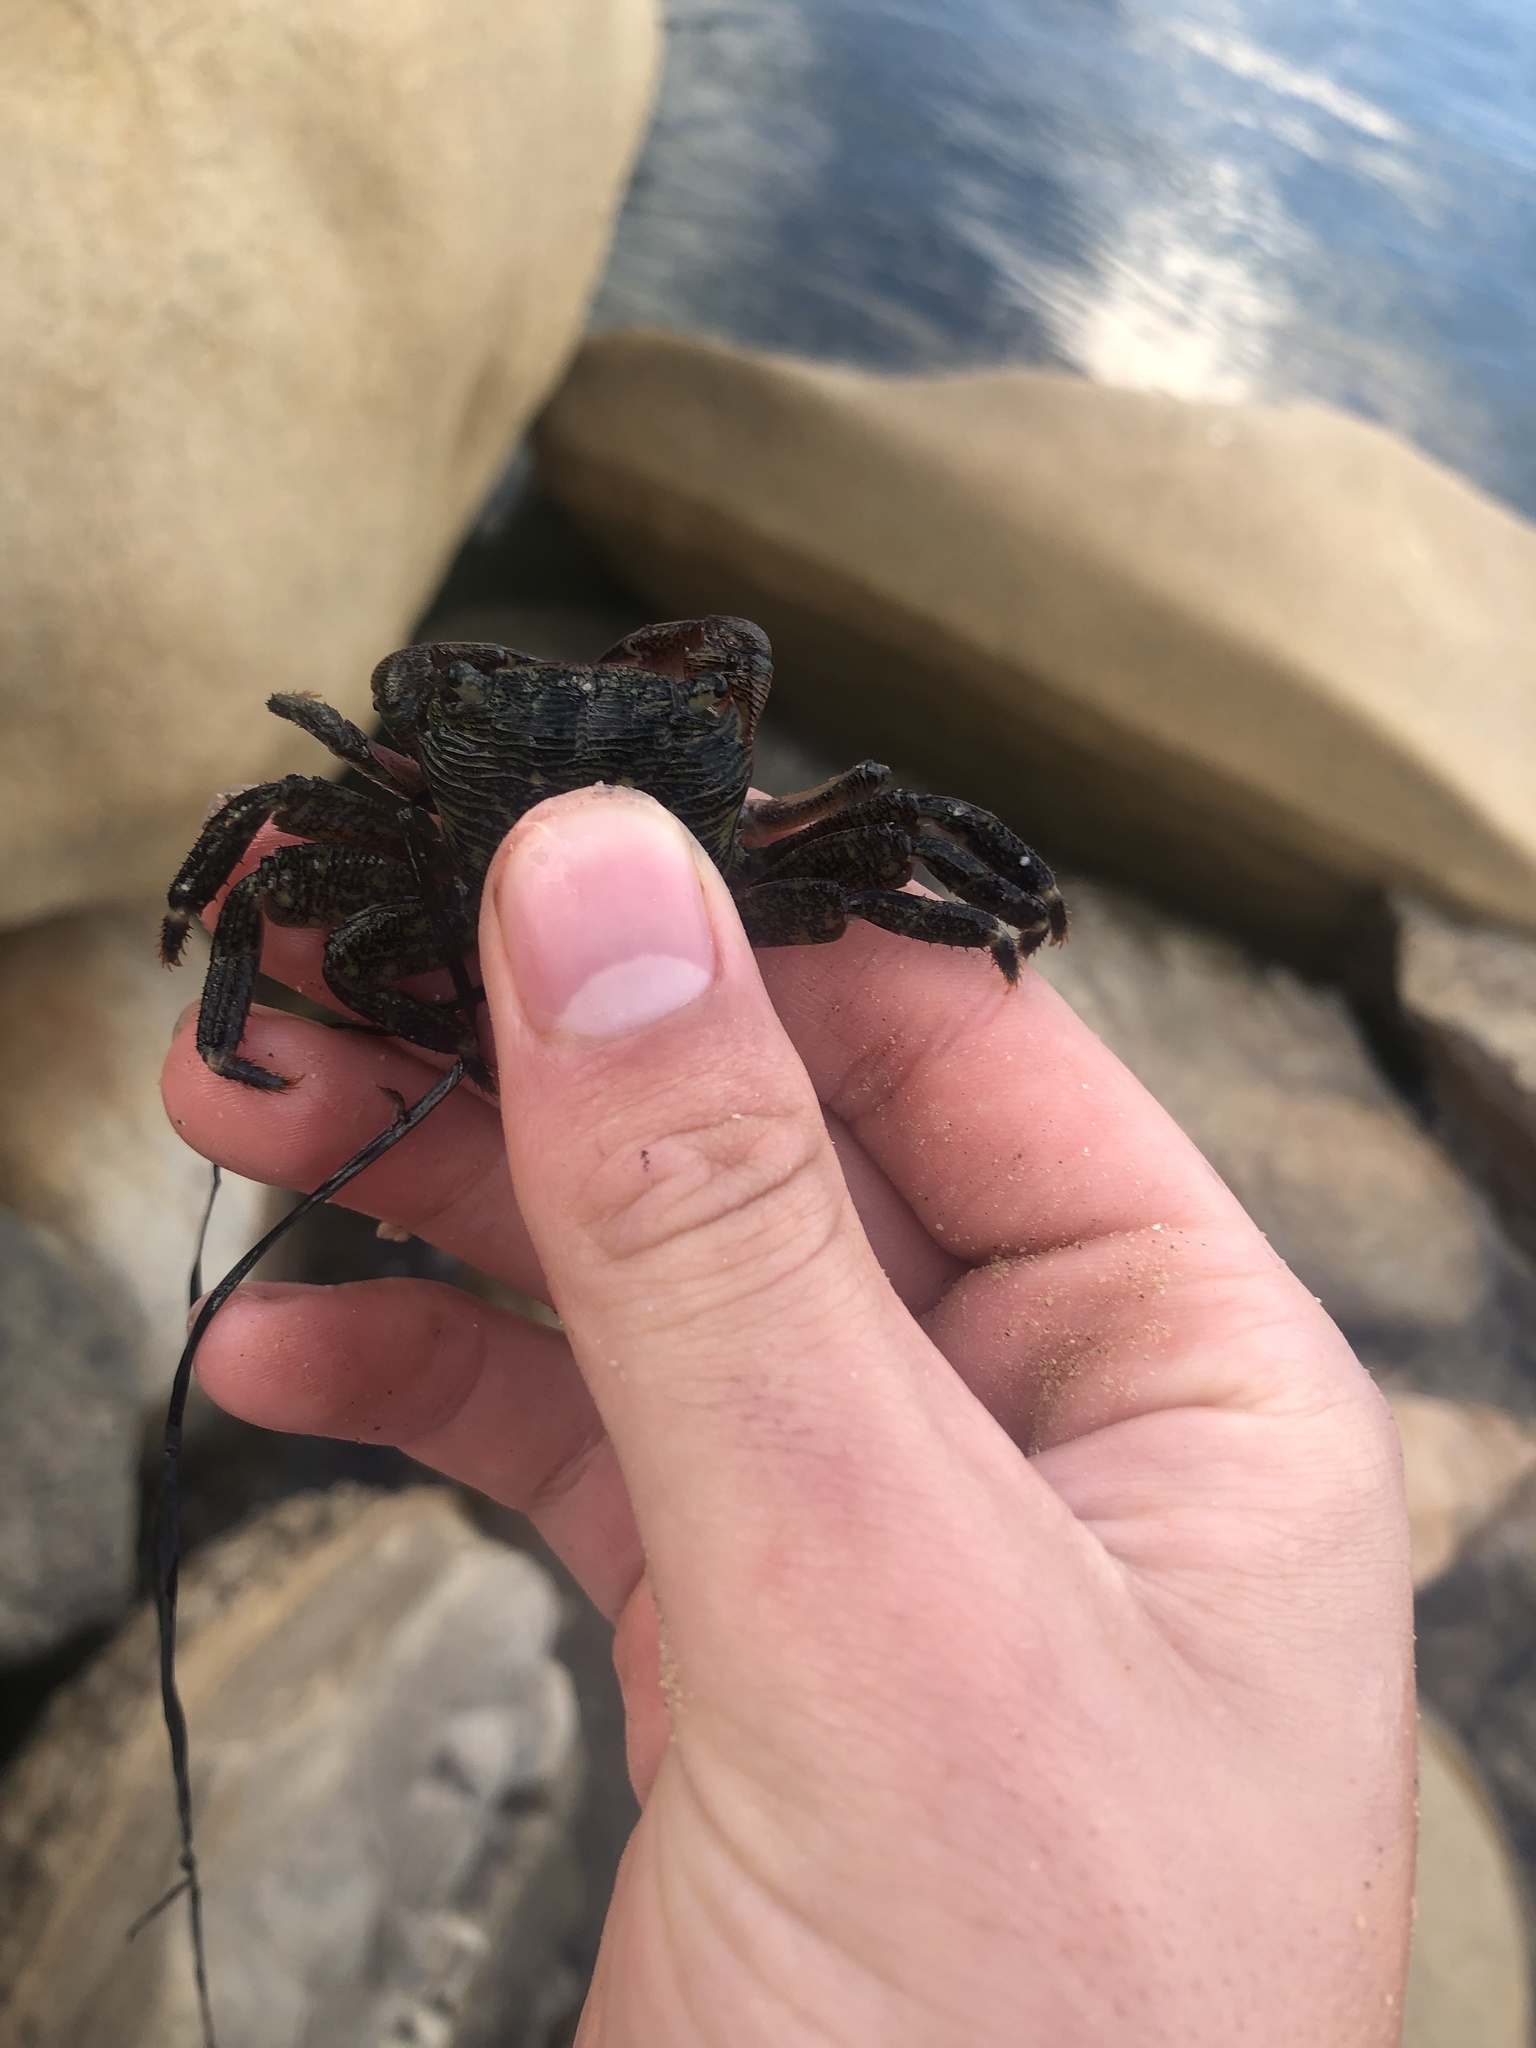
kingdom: Animalia
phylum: Arthropoda
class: Malacostraca
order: Decapoda
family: Grapsidae
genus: Pachygrapsus
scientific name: Pachygrapsus crassipes
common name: Striped shore crab
